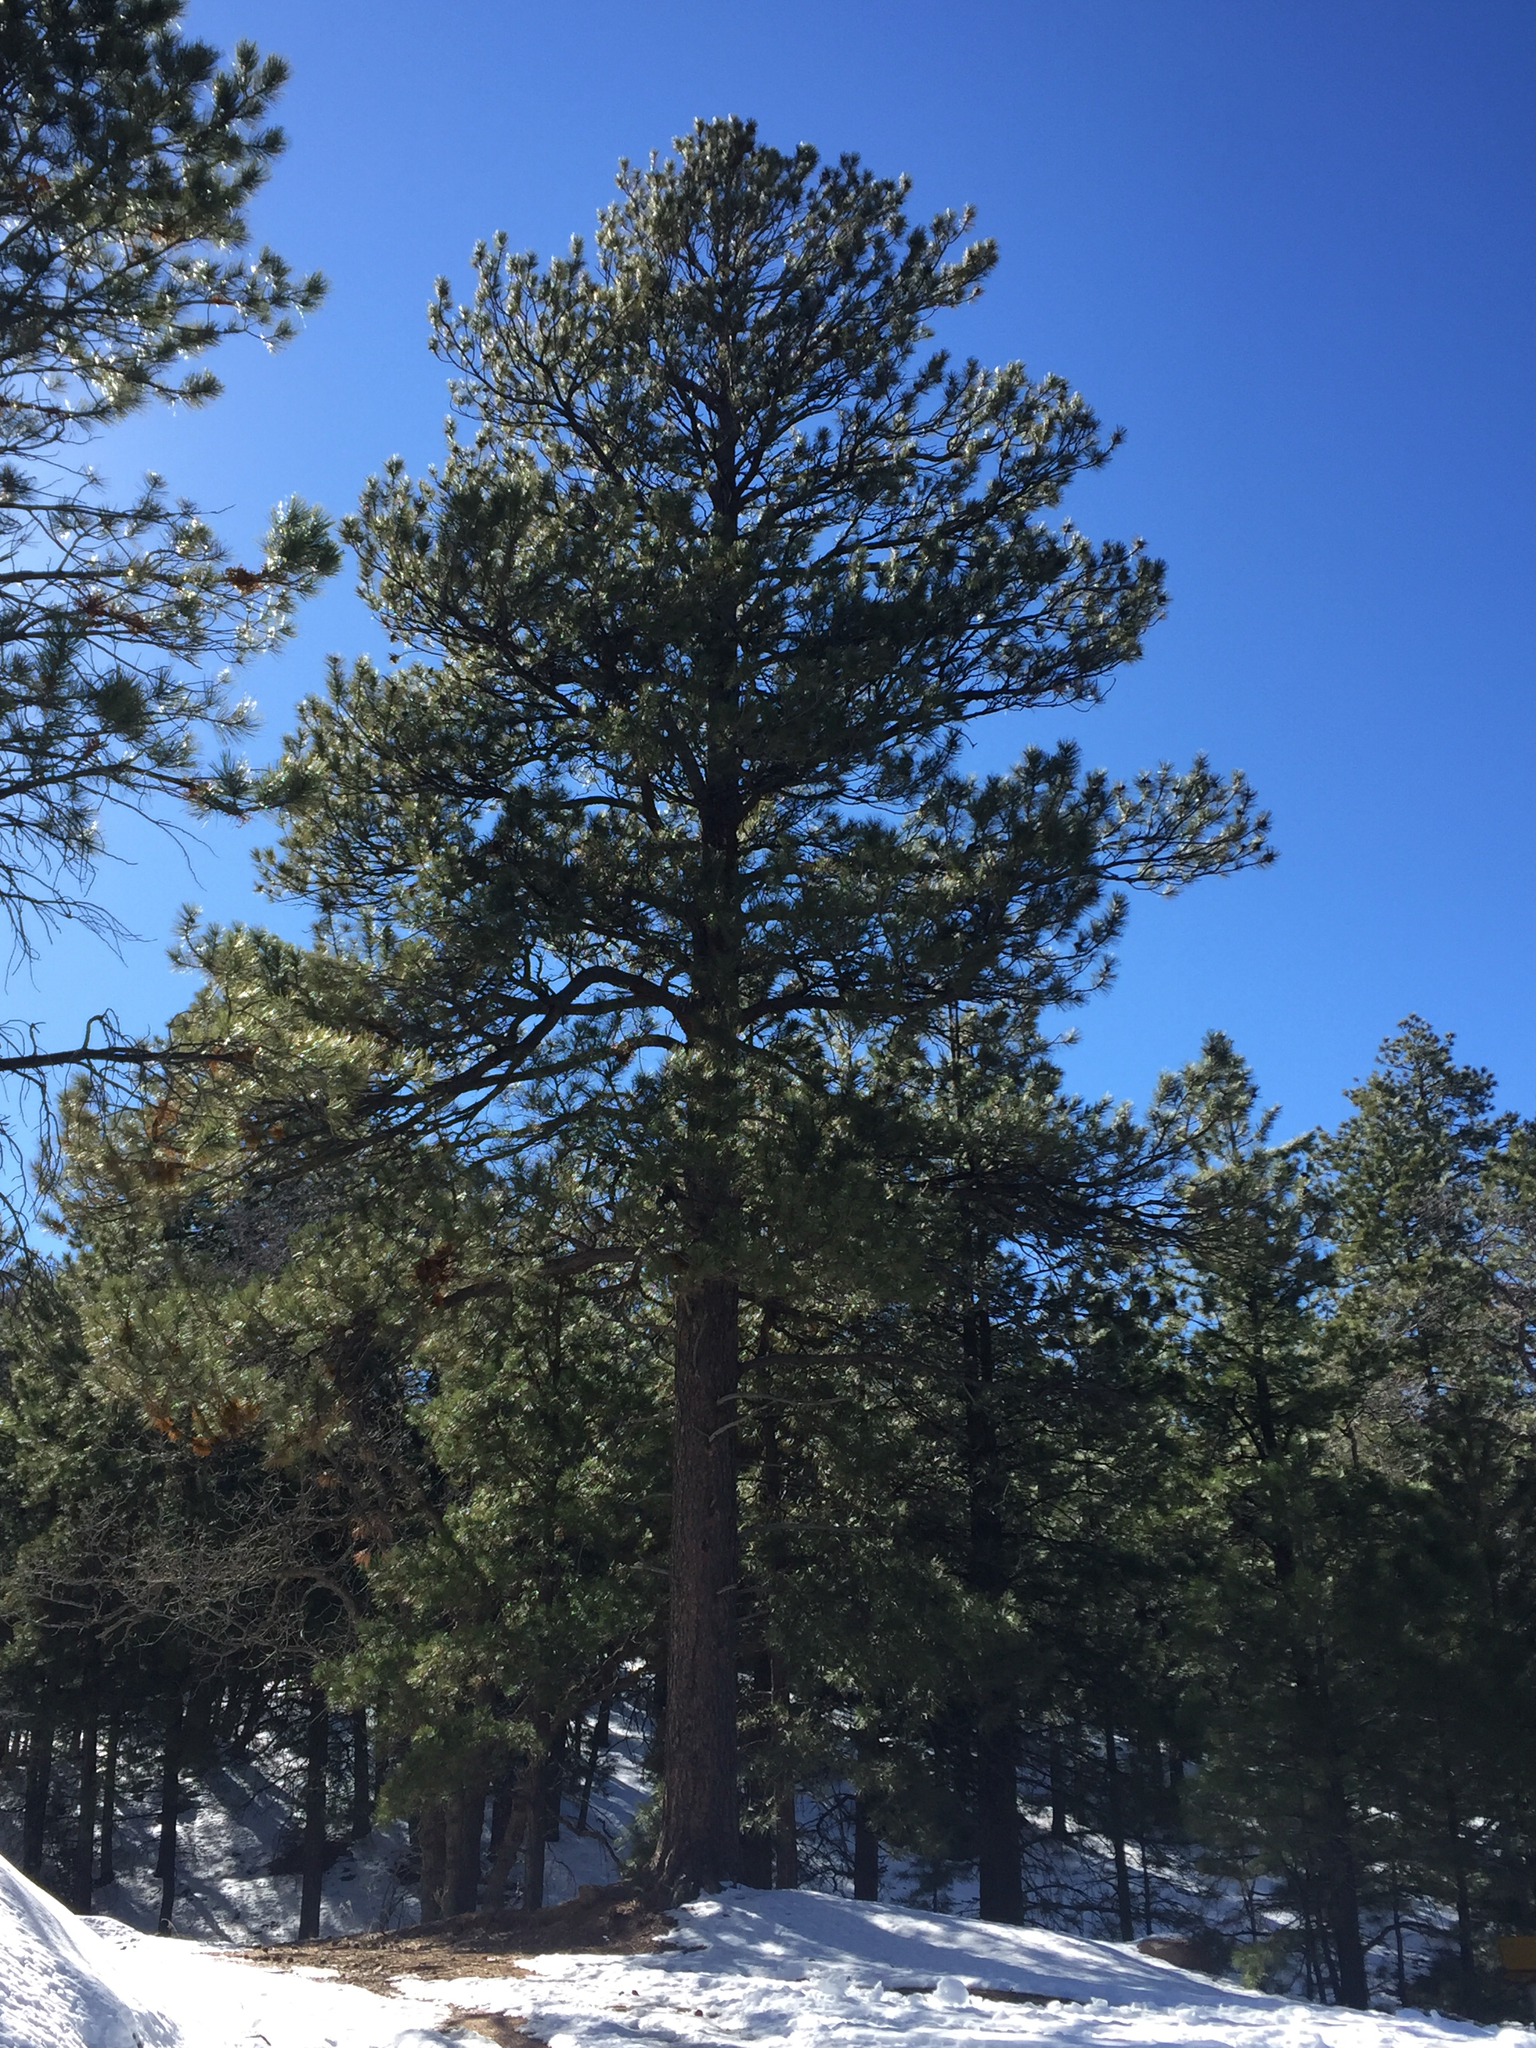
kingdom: Plantae
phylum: Tracheophyta
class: Pinopsida
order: Pinales
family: Pinaceae
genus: Pinus
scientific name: Pinus ponderosa
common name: Western yellow-pine
